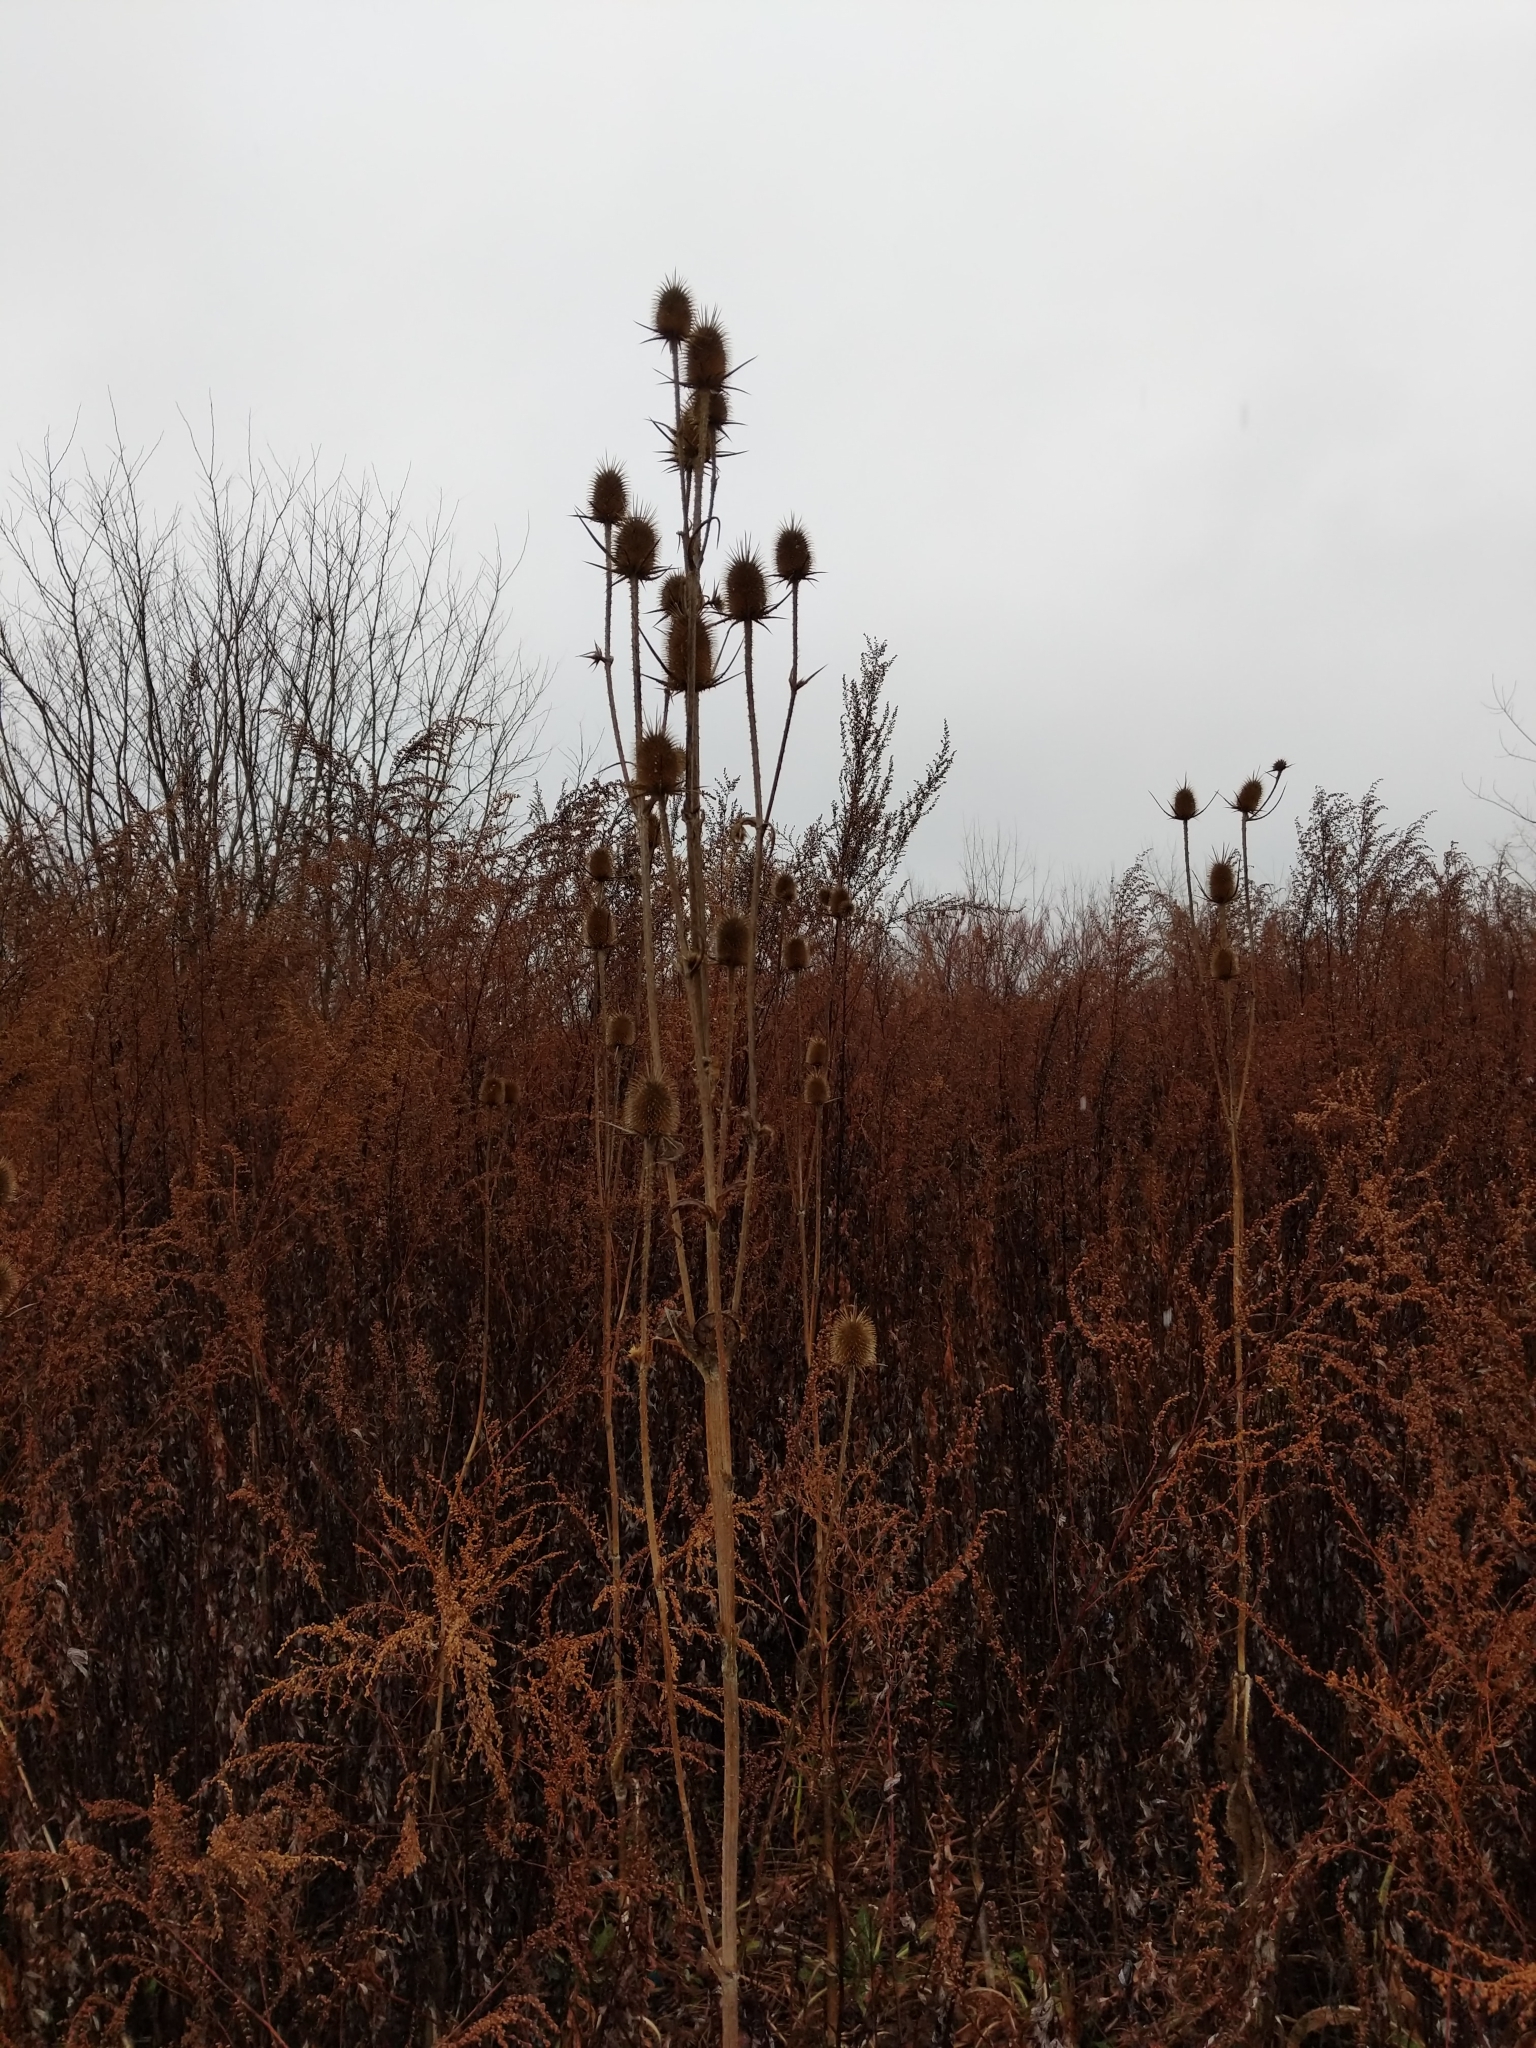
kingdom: Plantae
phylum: Tracheophyta
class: Magnoliopsida
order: Dipsacales
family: Caprifoliaceae
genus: Dipsacus
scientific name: Dipsacus laciniatus
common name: Cut-leaved teasel
